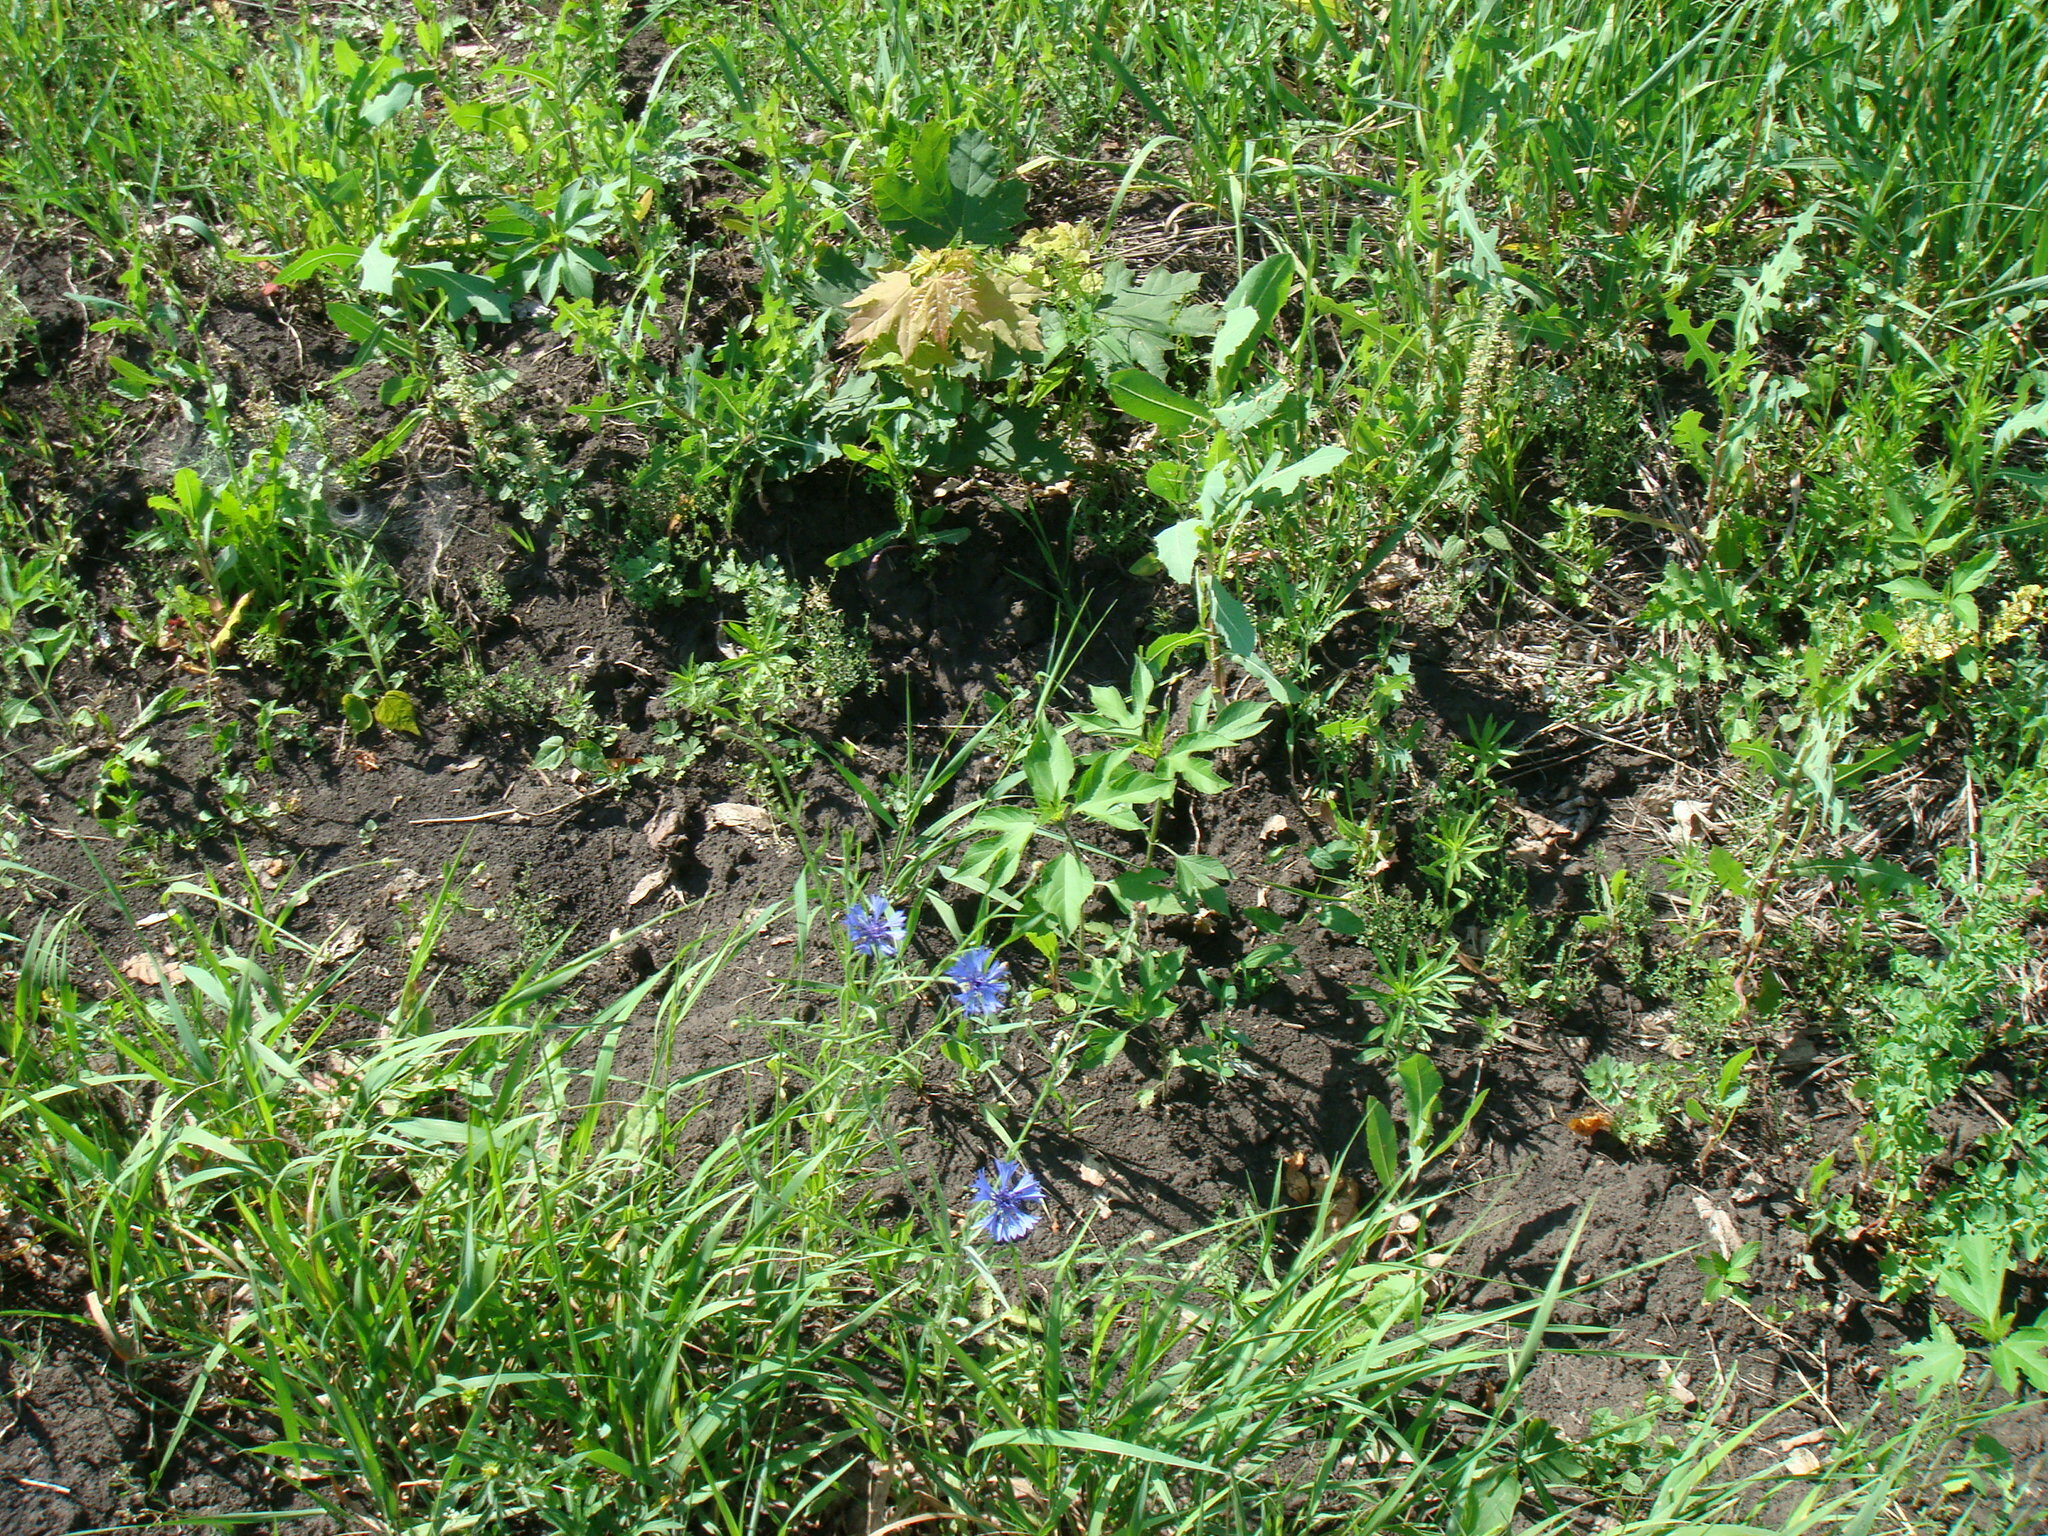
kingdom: Plantae
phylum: Tracheophyta
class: Magnoliopsida
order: Asterales
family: Asteraceae
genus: Centaurea
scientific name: Centaurea cyanus
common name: Cornflower
